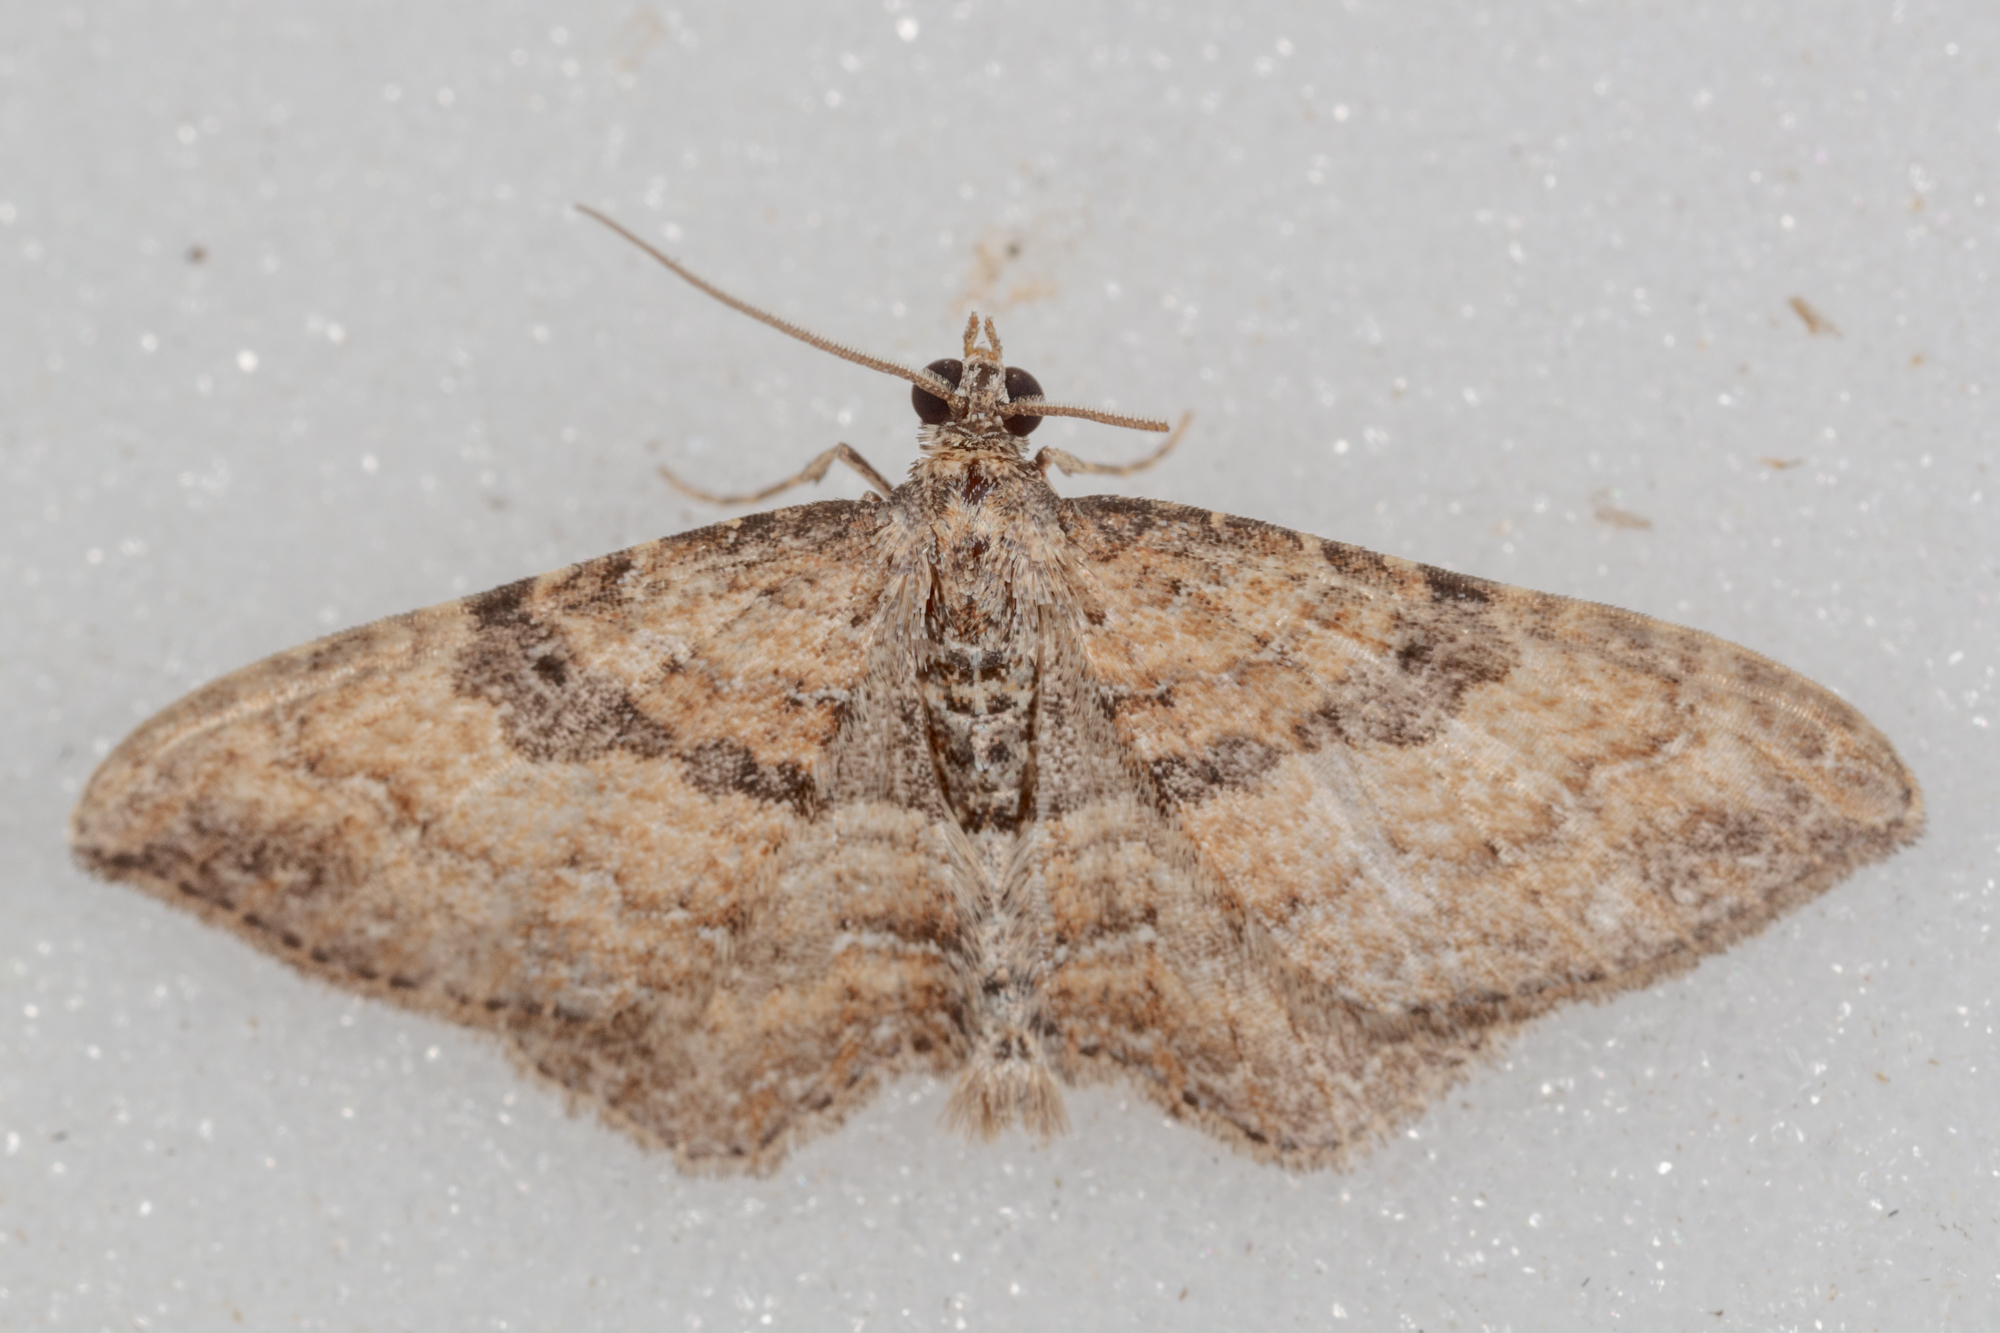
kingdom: Animalia
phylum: Arthropoda
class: Insecta
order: Lepidoptera
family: Geometridae
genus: Orthonama
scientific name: Orthonama obstipata
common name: The gem
